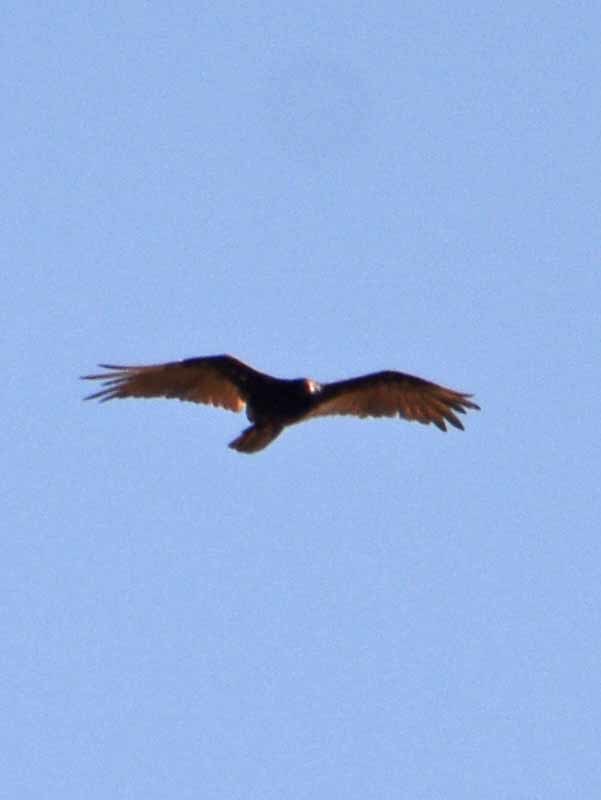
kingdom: Animalia
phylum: Chordata
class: Aves
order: Accipitriformes
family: Cathartidae
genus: Cathartes
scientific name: Cathartes aura
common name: Turkey vulture
